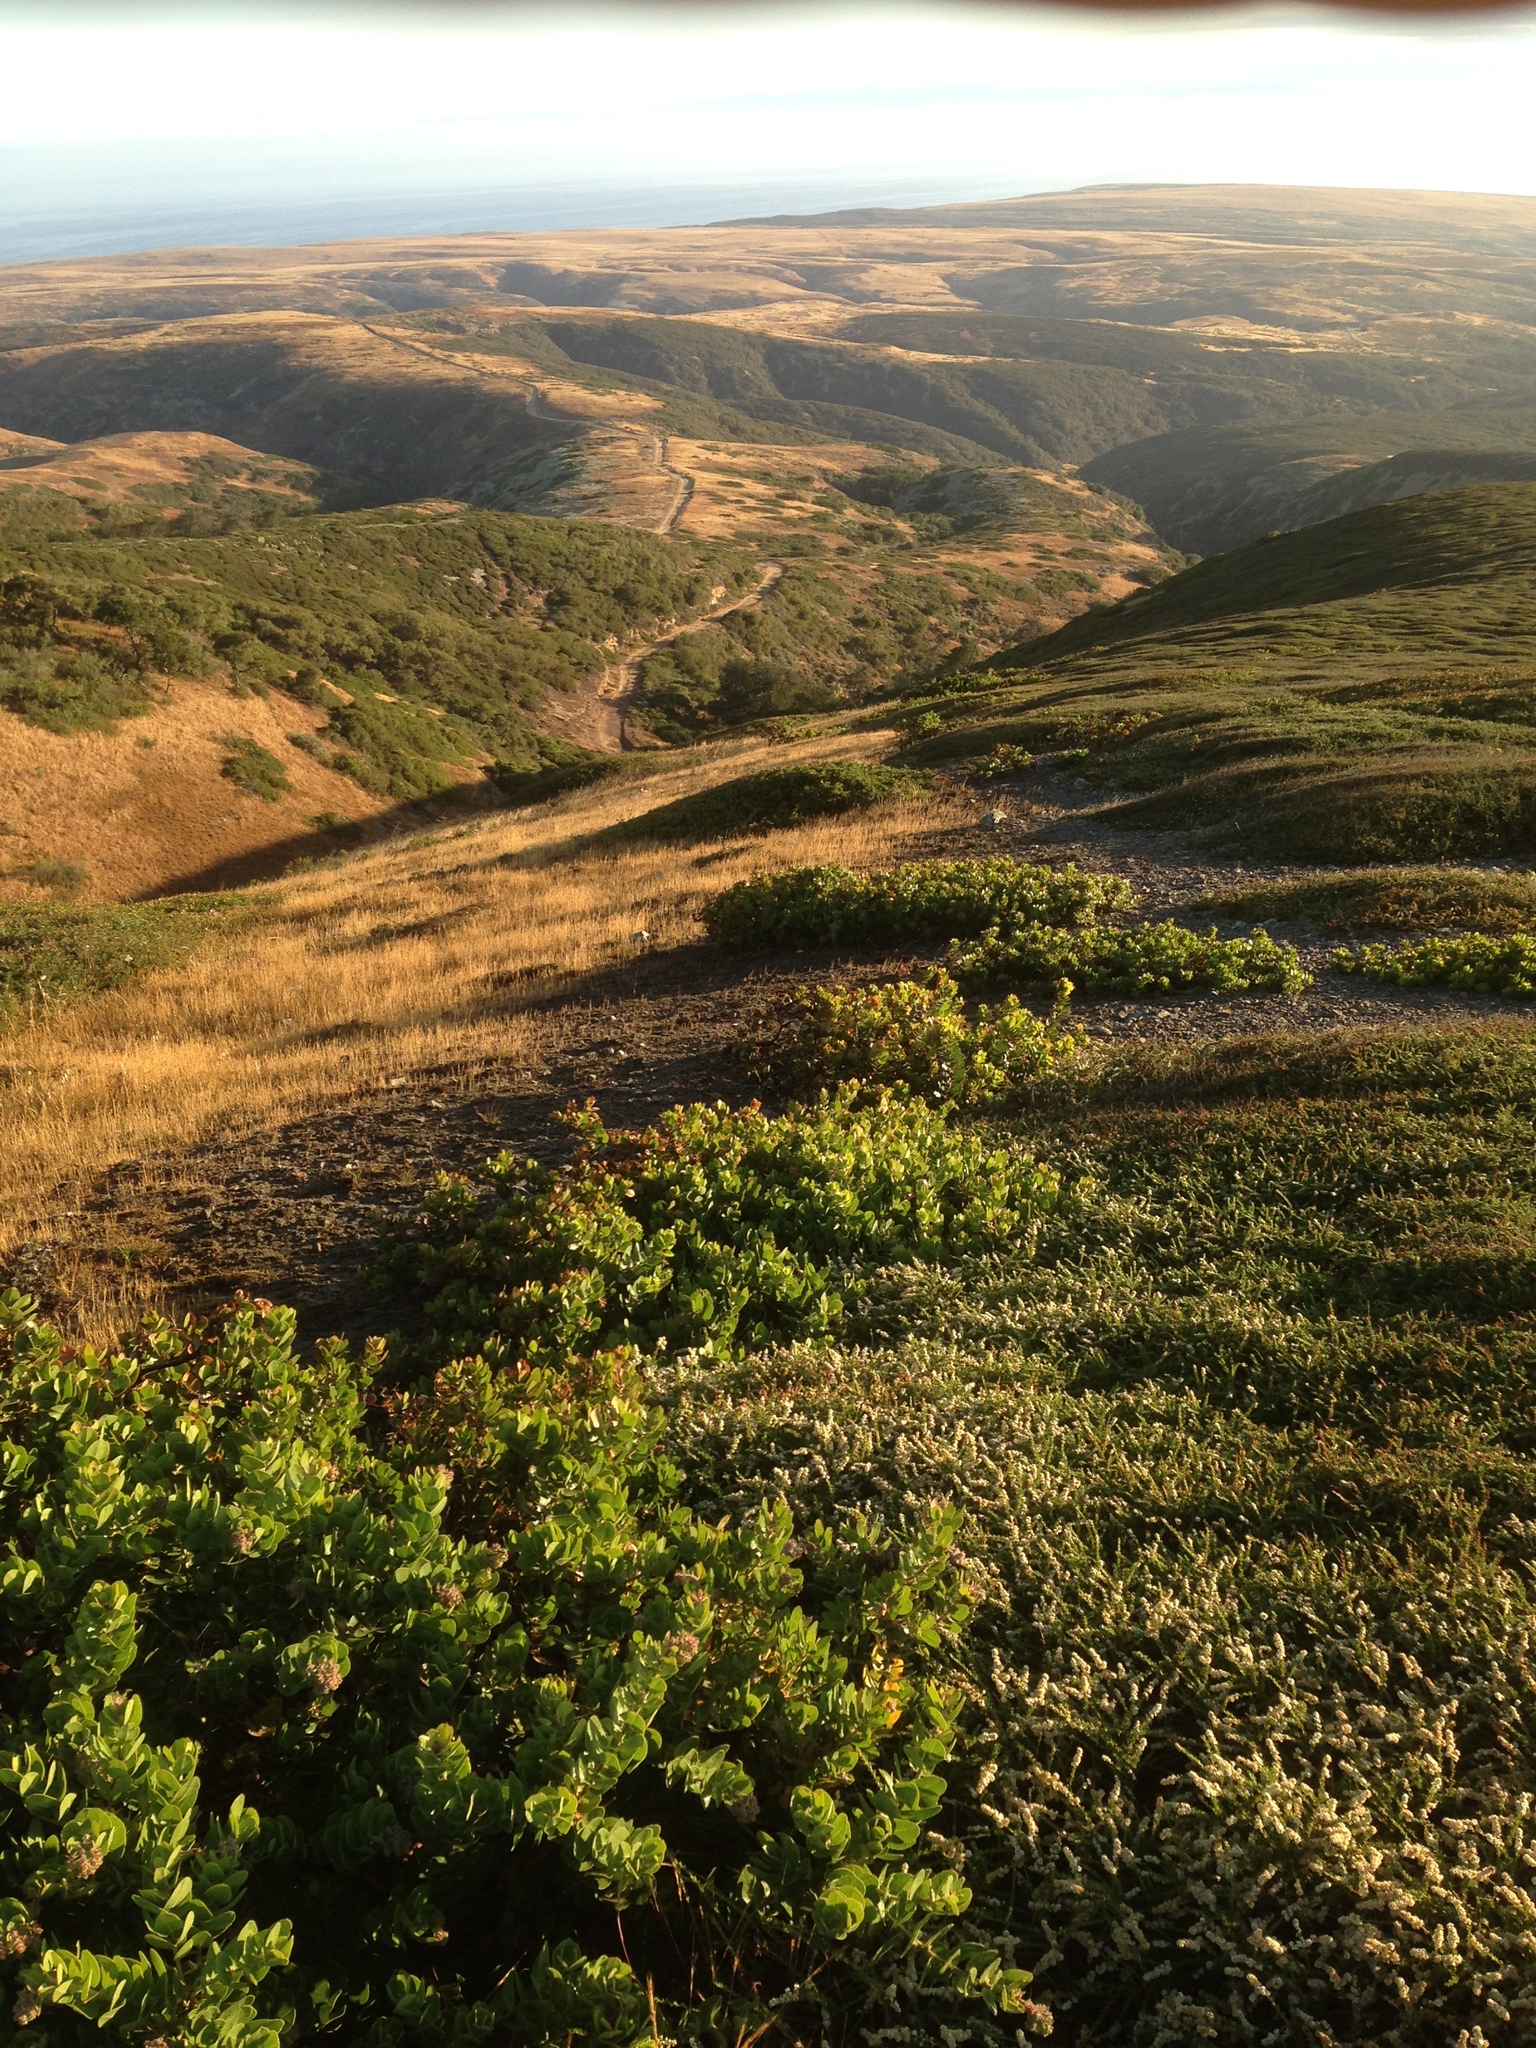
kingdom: Plantae
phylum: Tracheophyta
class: Magnoliopsida
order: Ericales
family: Ericaceae
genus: Arctostaphylos
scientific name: Arctostaphylos confertiflora
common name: Santa rosa island manzanita
